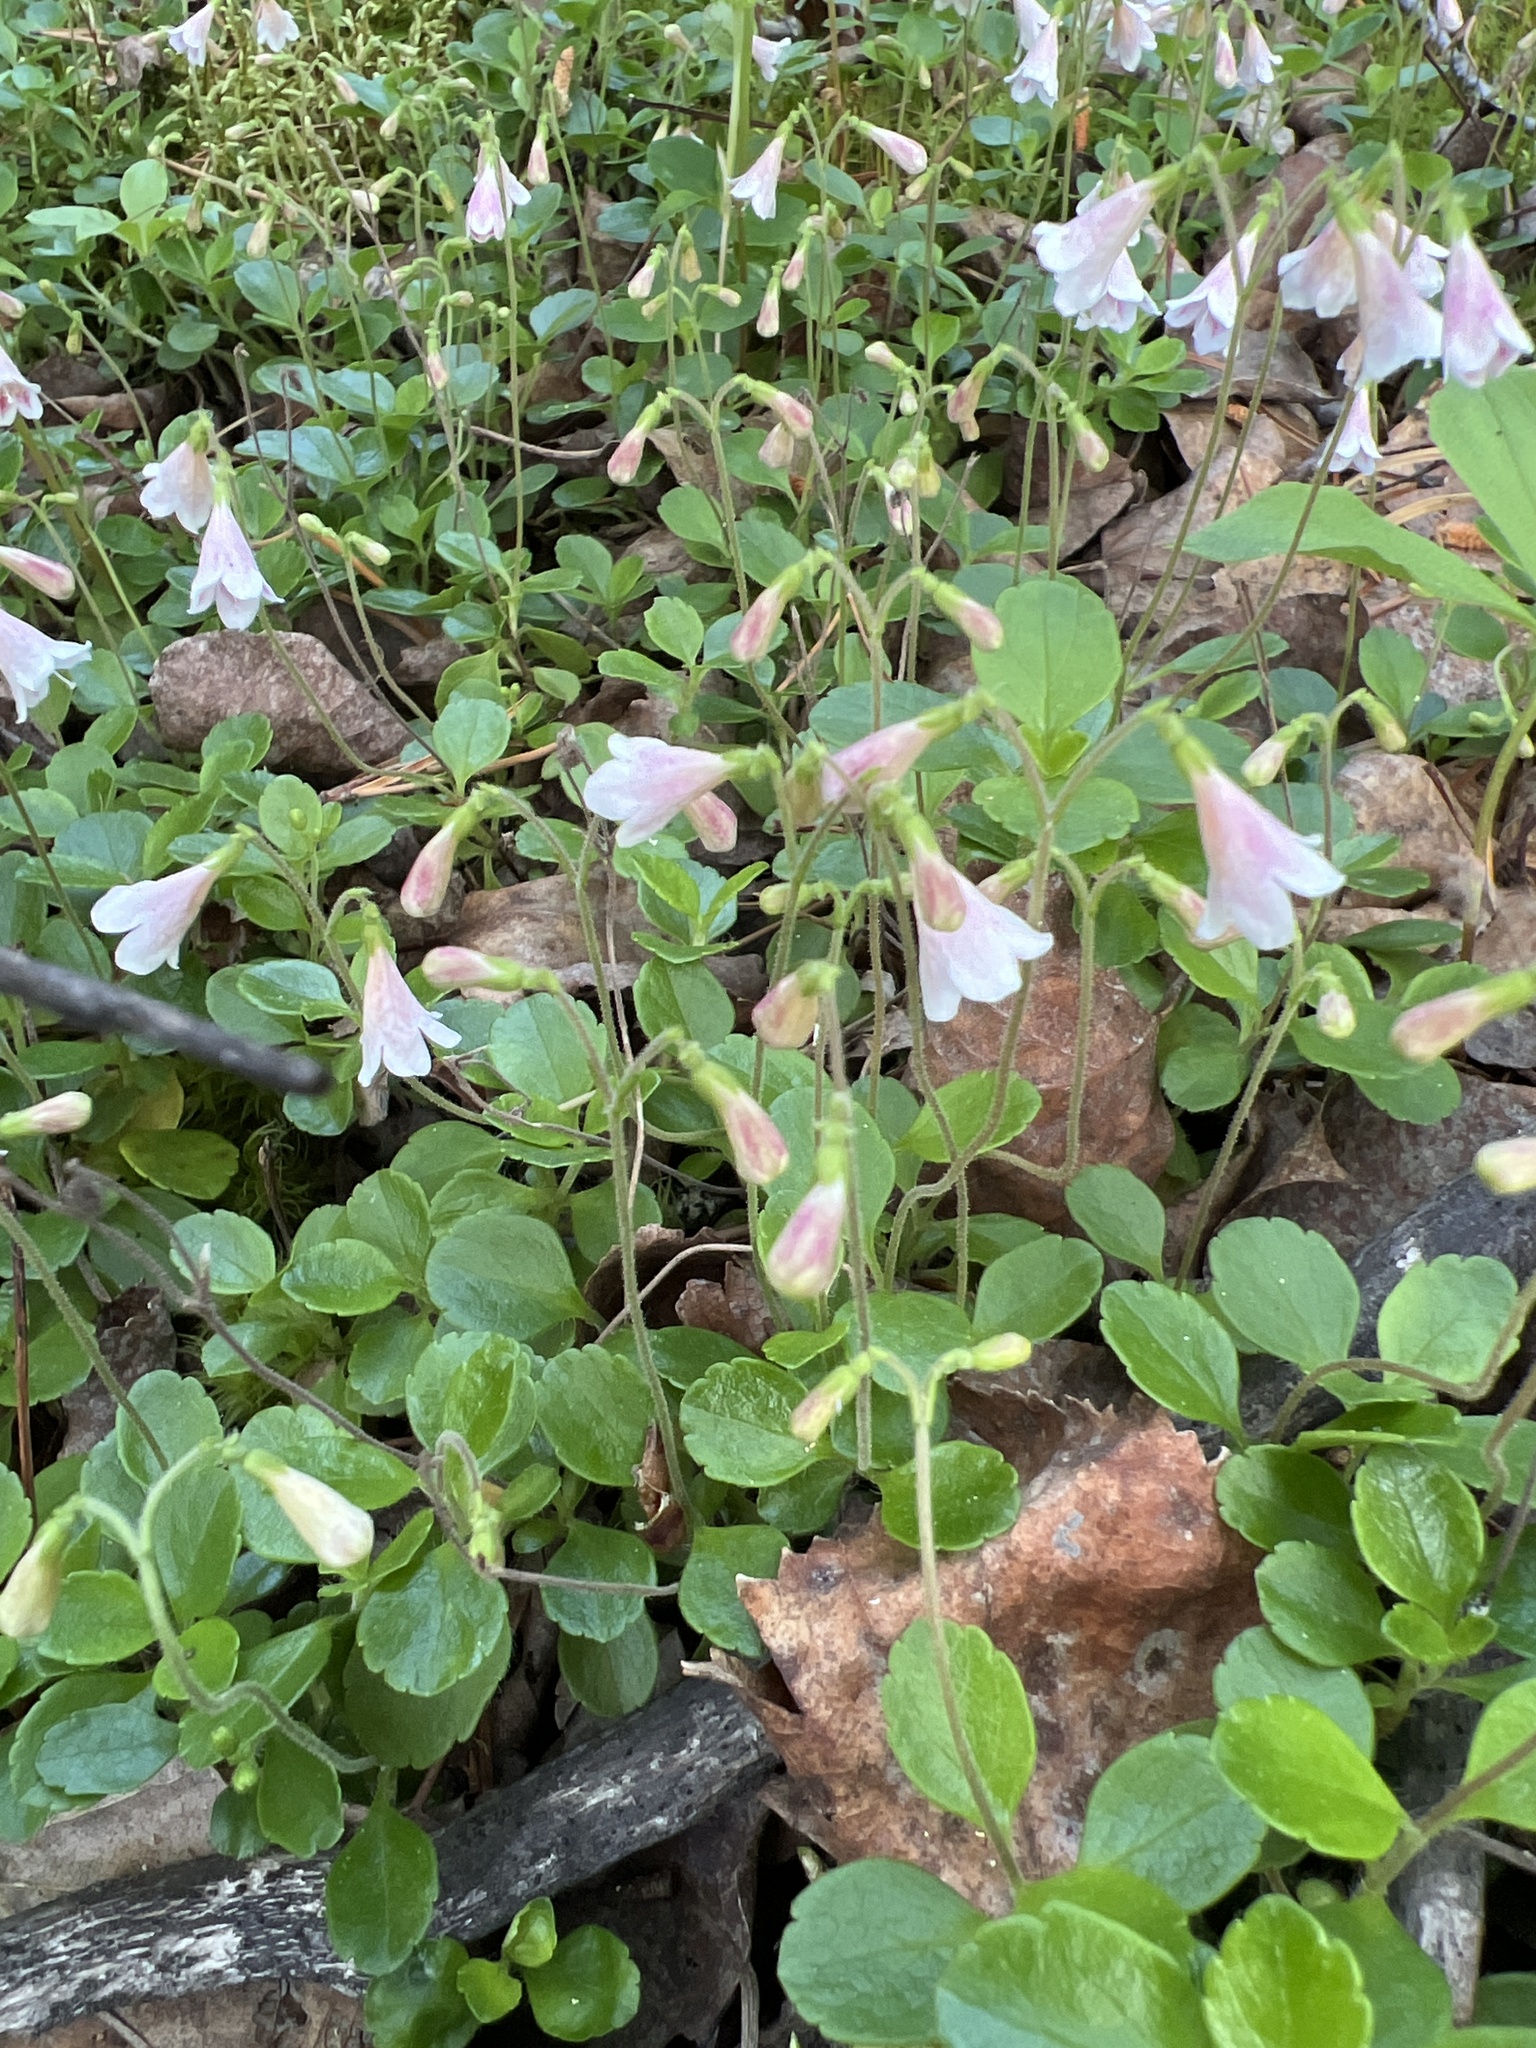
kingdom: Plantae
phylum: Tracheophyta
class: Magnoliopsida
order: Dipsacales
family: Caprifoliaceae
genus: Linnaea
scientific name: Linnaea borealis
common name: Twinflower
